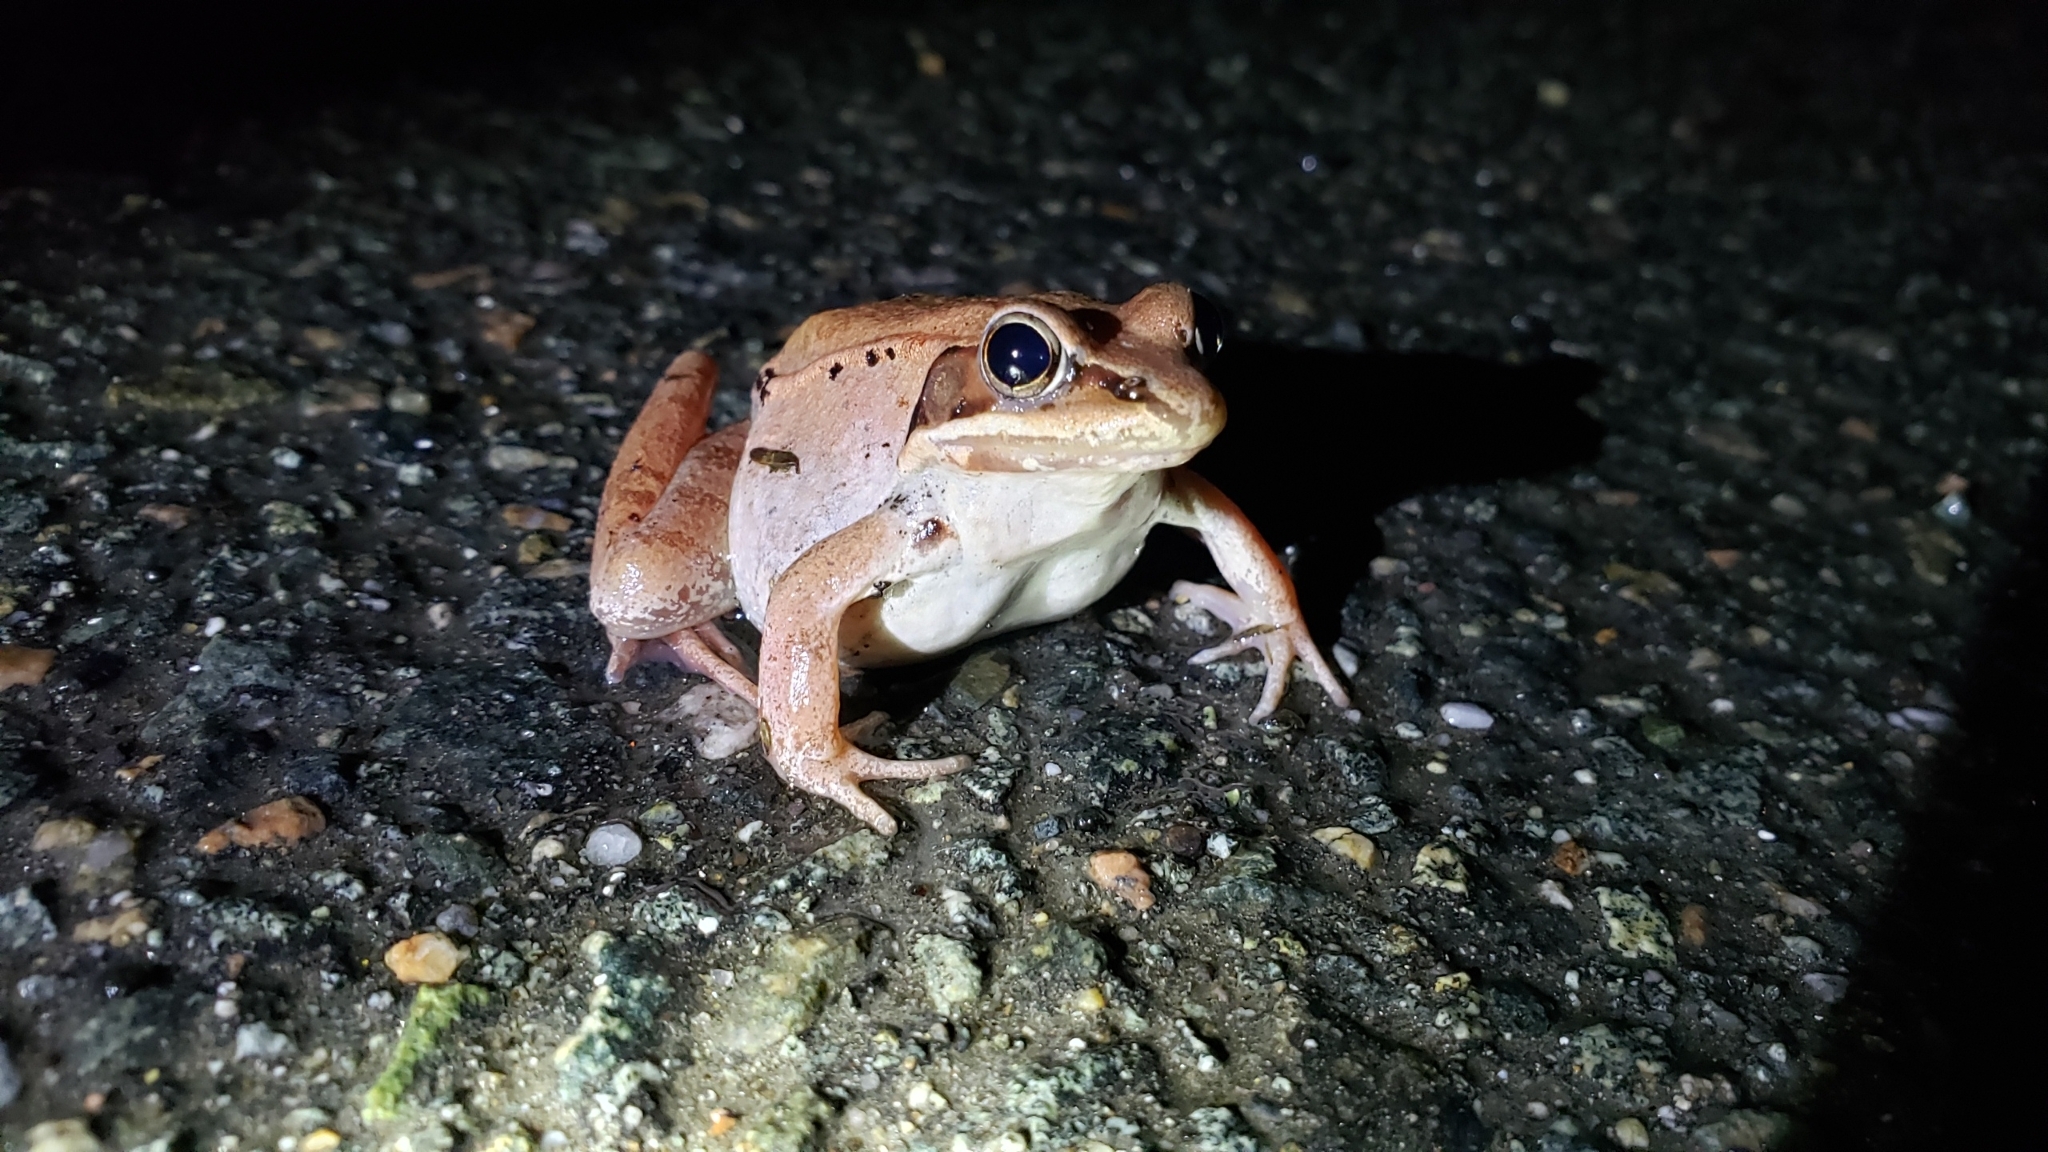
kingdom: Animalia
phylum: Chordata
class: Amphibia
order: Anura
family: Ranidae
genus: Lithobates
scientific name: Lithobates sylvaticus
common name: Wood frog
